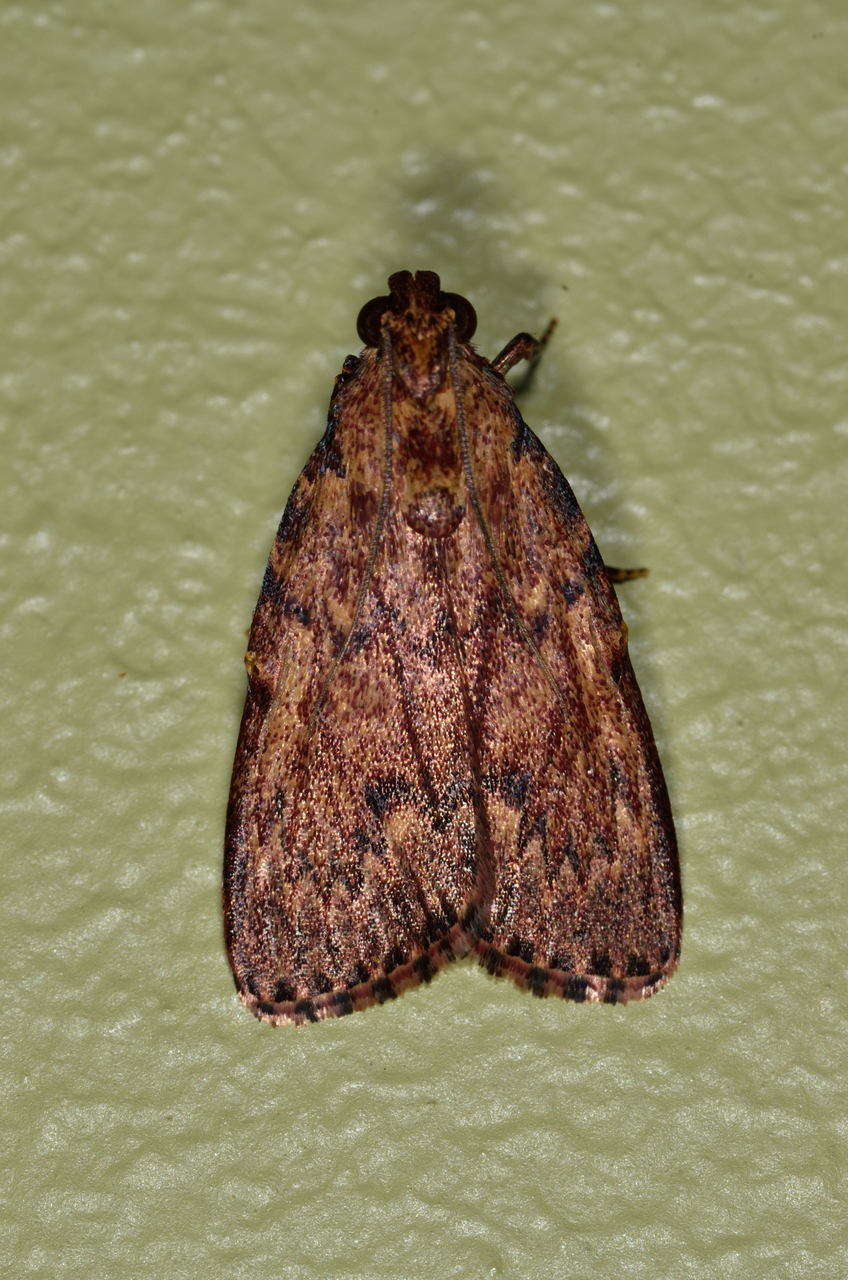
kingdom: Animalia
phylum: Arthropoda
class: Insecta
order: Lepidoptera
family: Pyralidae
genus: Mimaglossa
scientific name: Mimaglossa nauplialis
